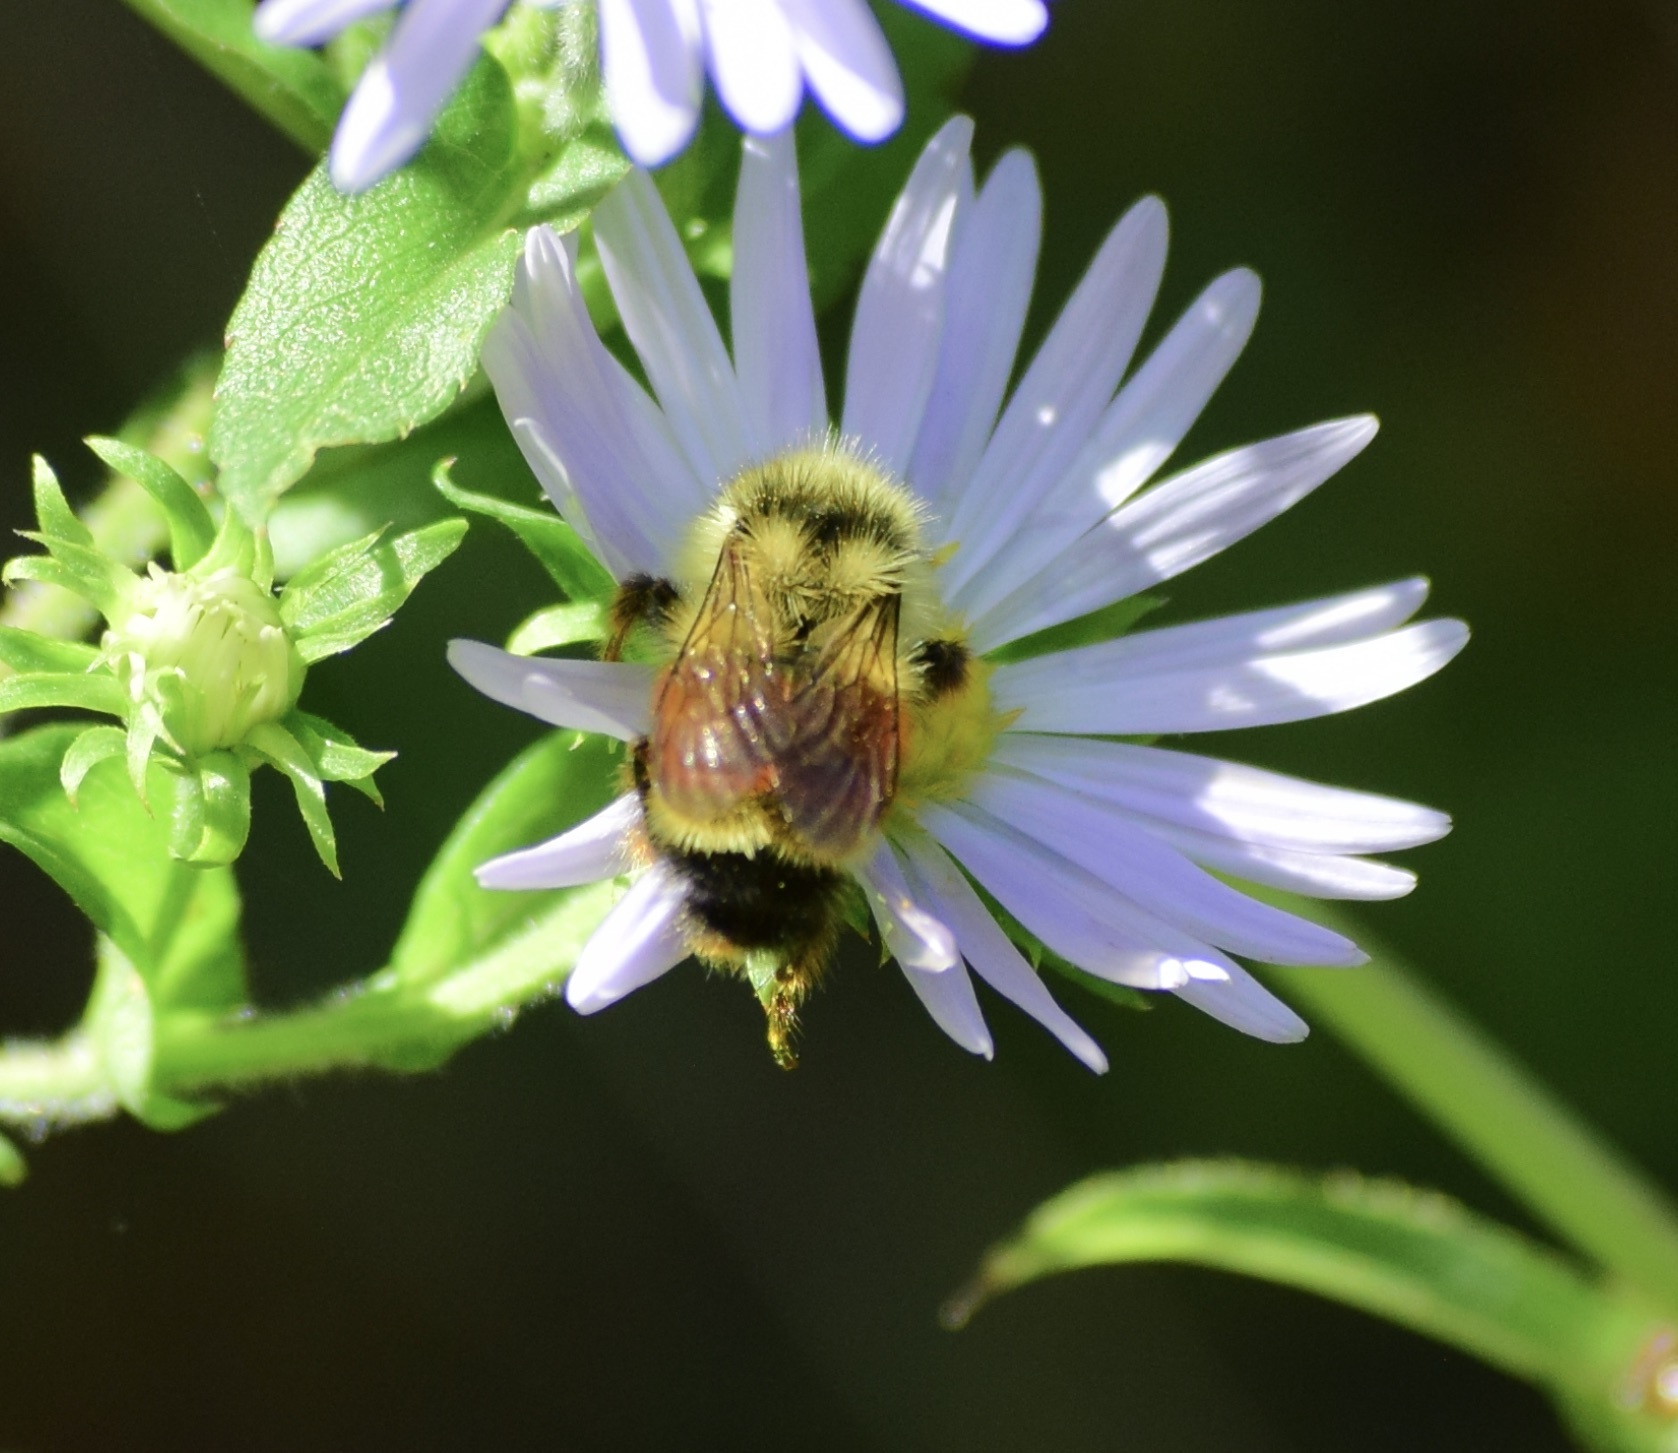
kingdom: Animalia
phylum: Arthropoda
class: Insecta
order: Hymenoptera
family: Apidae
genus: Bombus
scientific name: Bombus ternarius
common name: Tri-colored bumble bee
